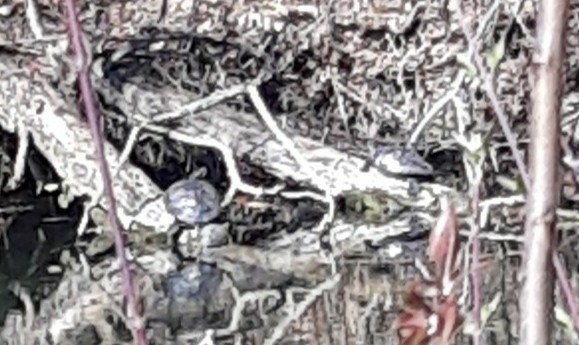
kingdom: Animalia
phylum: Chordata
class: Testudines
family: Emydidae
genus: Trachemys
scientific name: Trachemys scripta
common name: Slider
